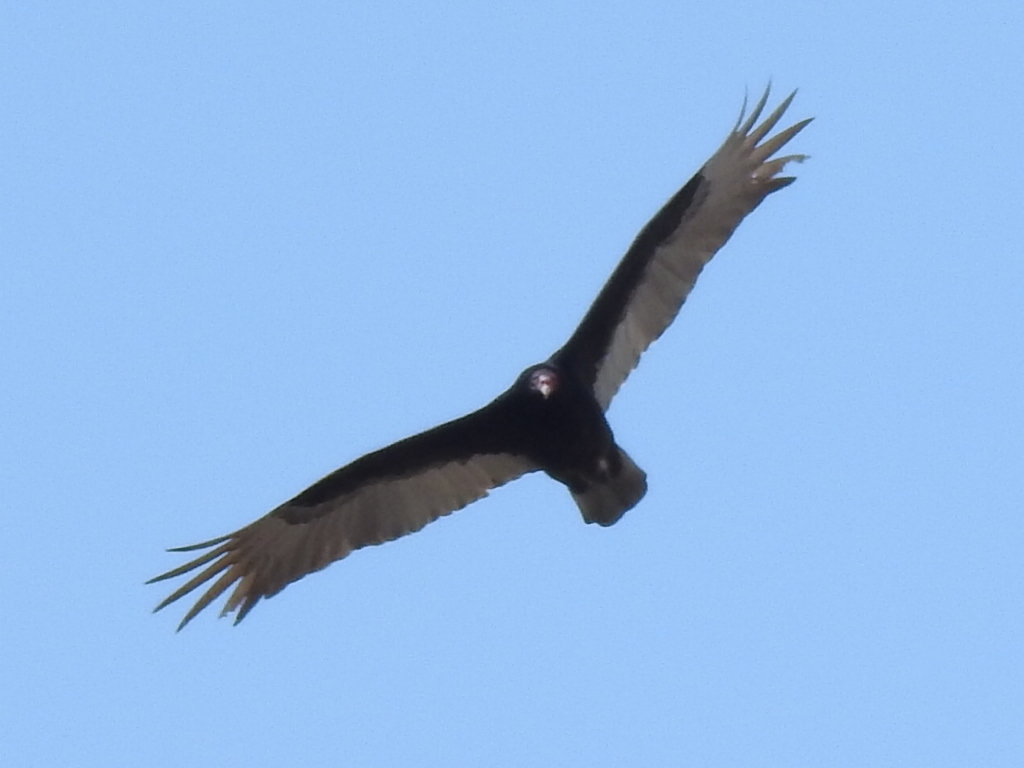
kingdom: Animalia
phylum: Chordata
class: Aves
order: Accipitriformes
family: Cathartidae
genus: Cathartes
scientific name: Cathartes aura
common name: Turkey vulture
